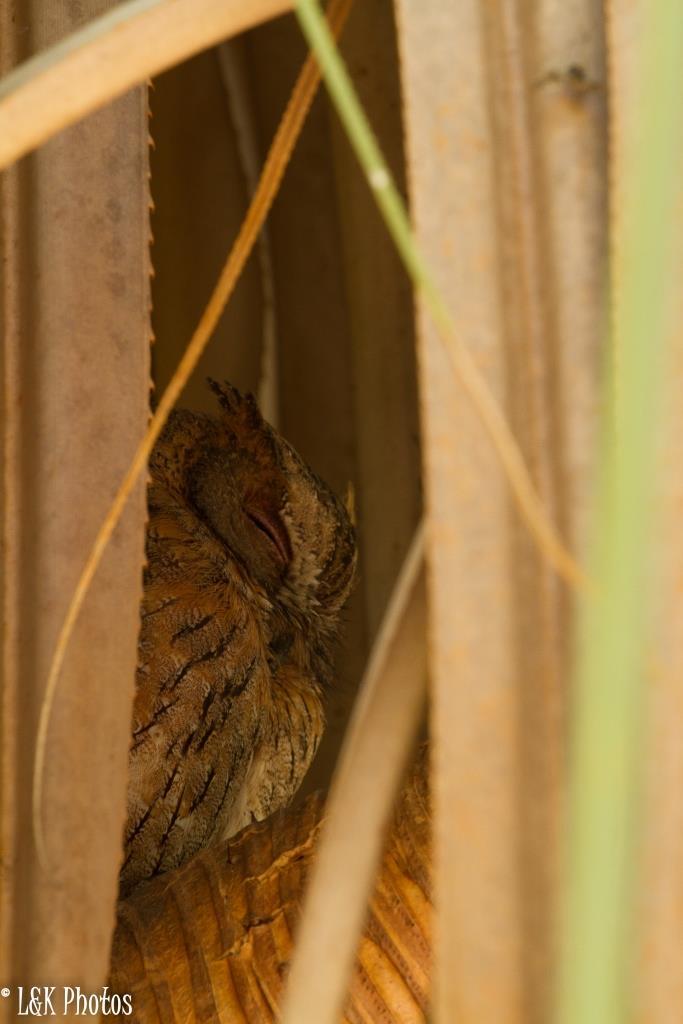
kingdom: Animalia
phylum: Chordata
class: Aves
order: Strigiformes
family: Strigidae
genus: Otus
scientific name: Otus rutilus
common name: Rainforest scops owl
